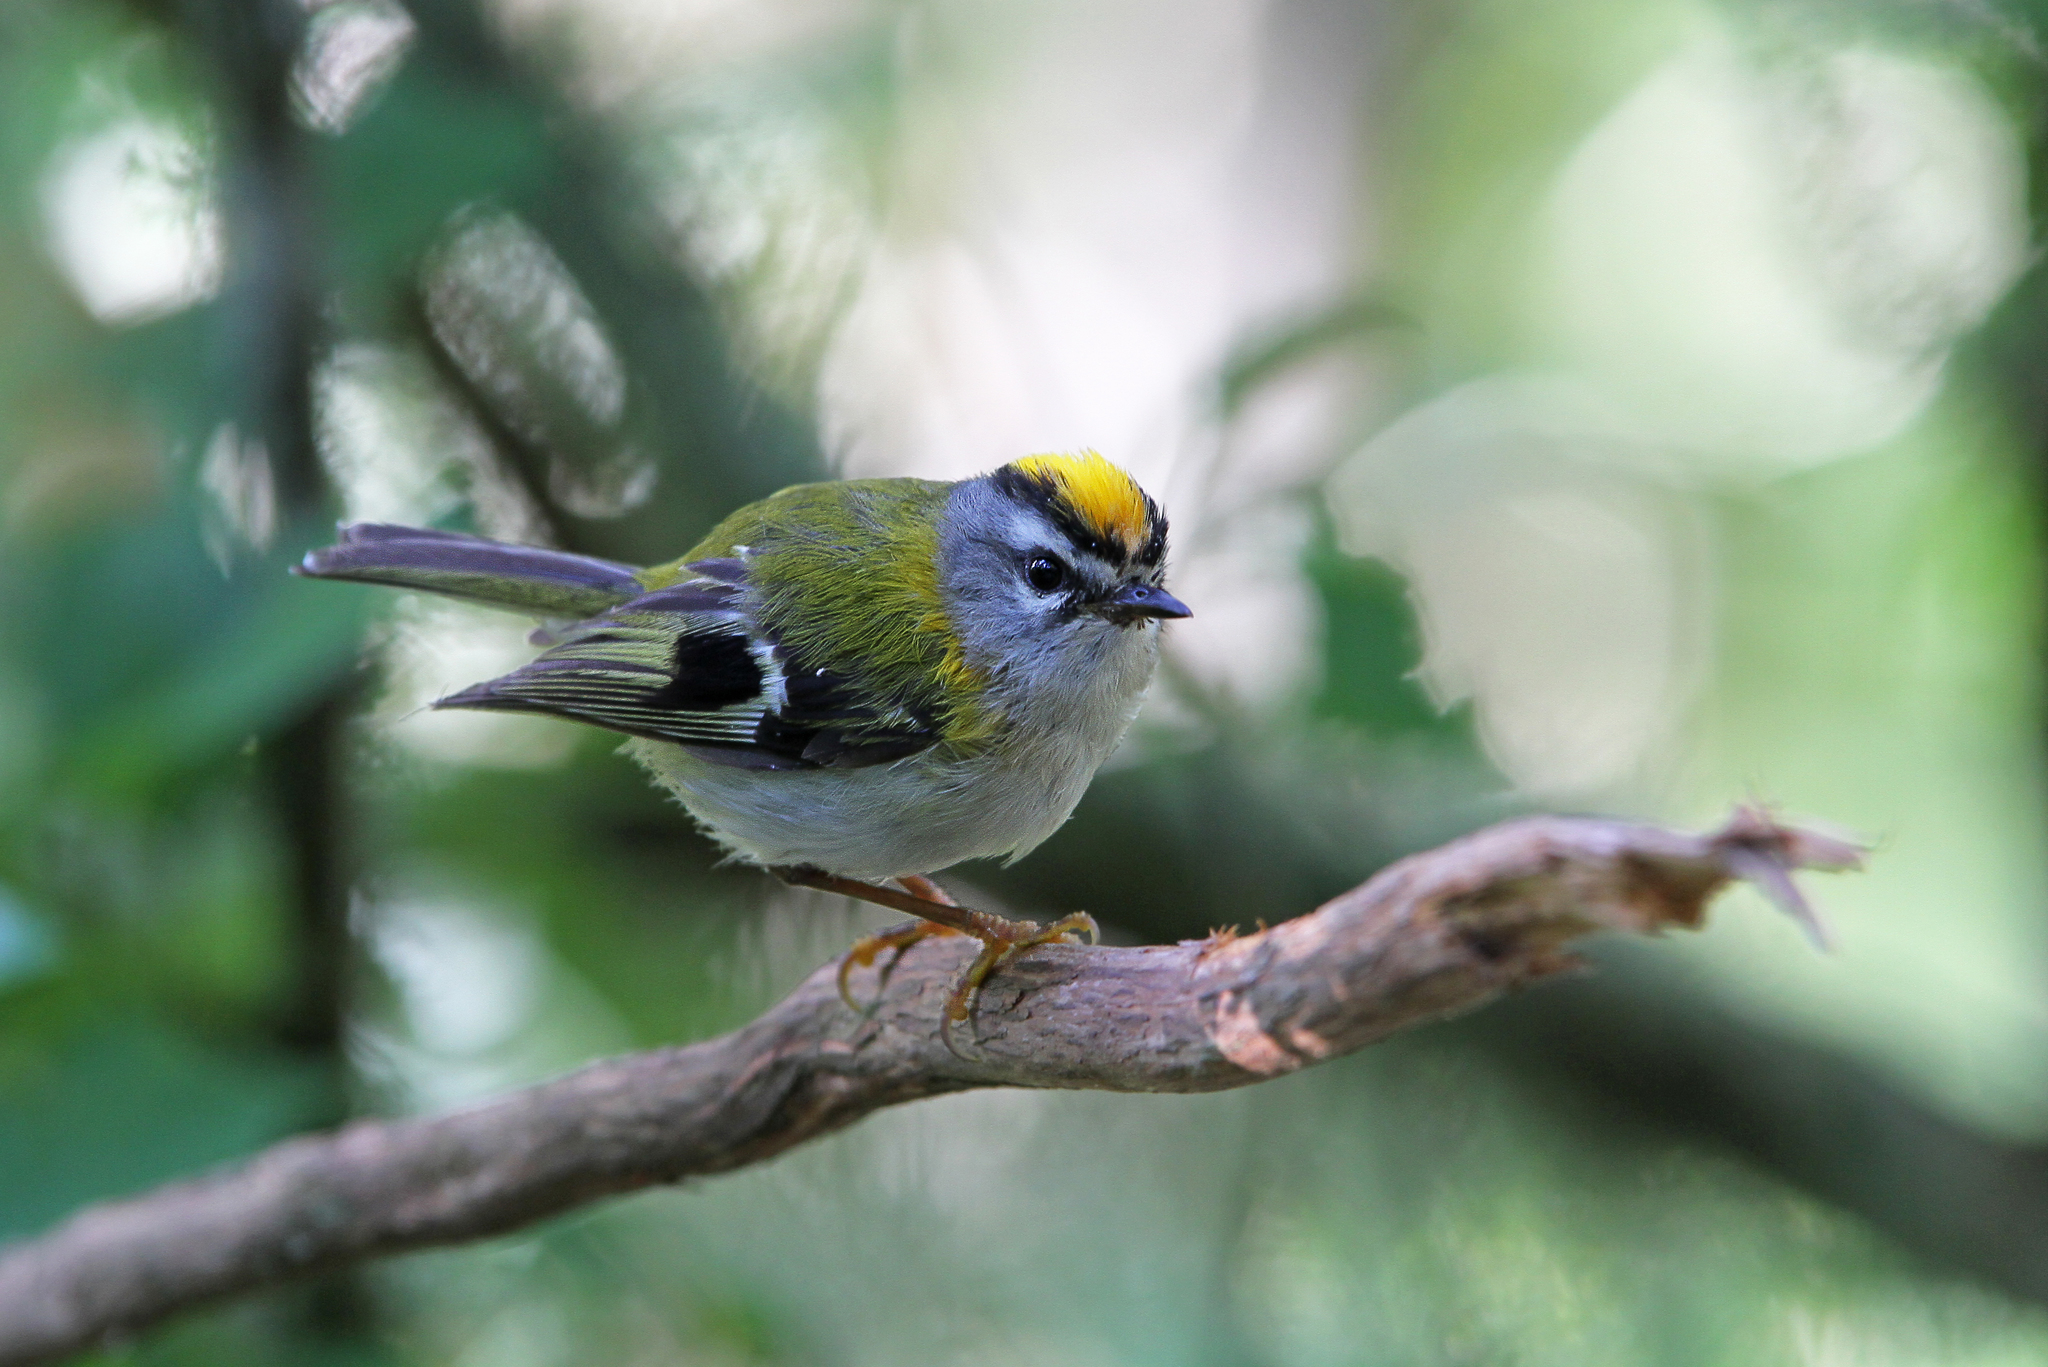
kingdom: Animalia
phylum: Chordata
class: Aves
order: Passeriformes
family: Regulidae
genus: Regulus
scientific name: Regulus madeirensis
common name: Madeira firecrest
